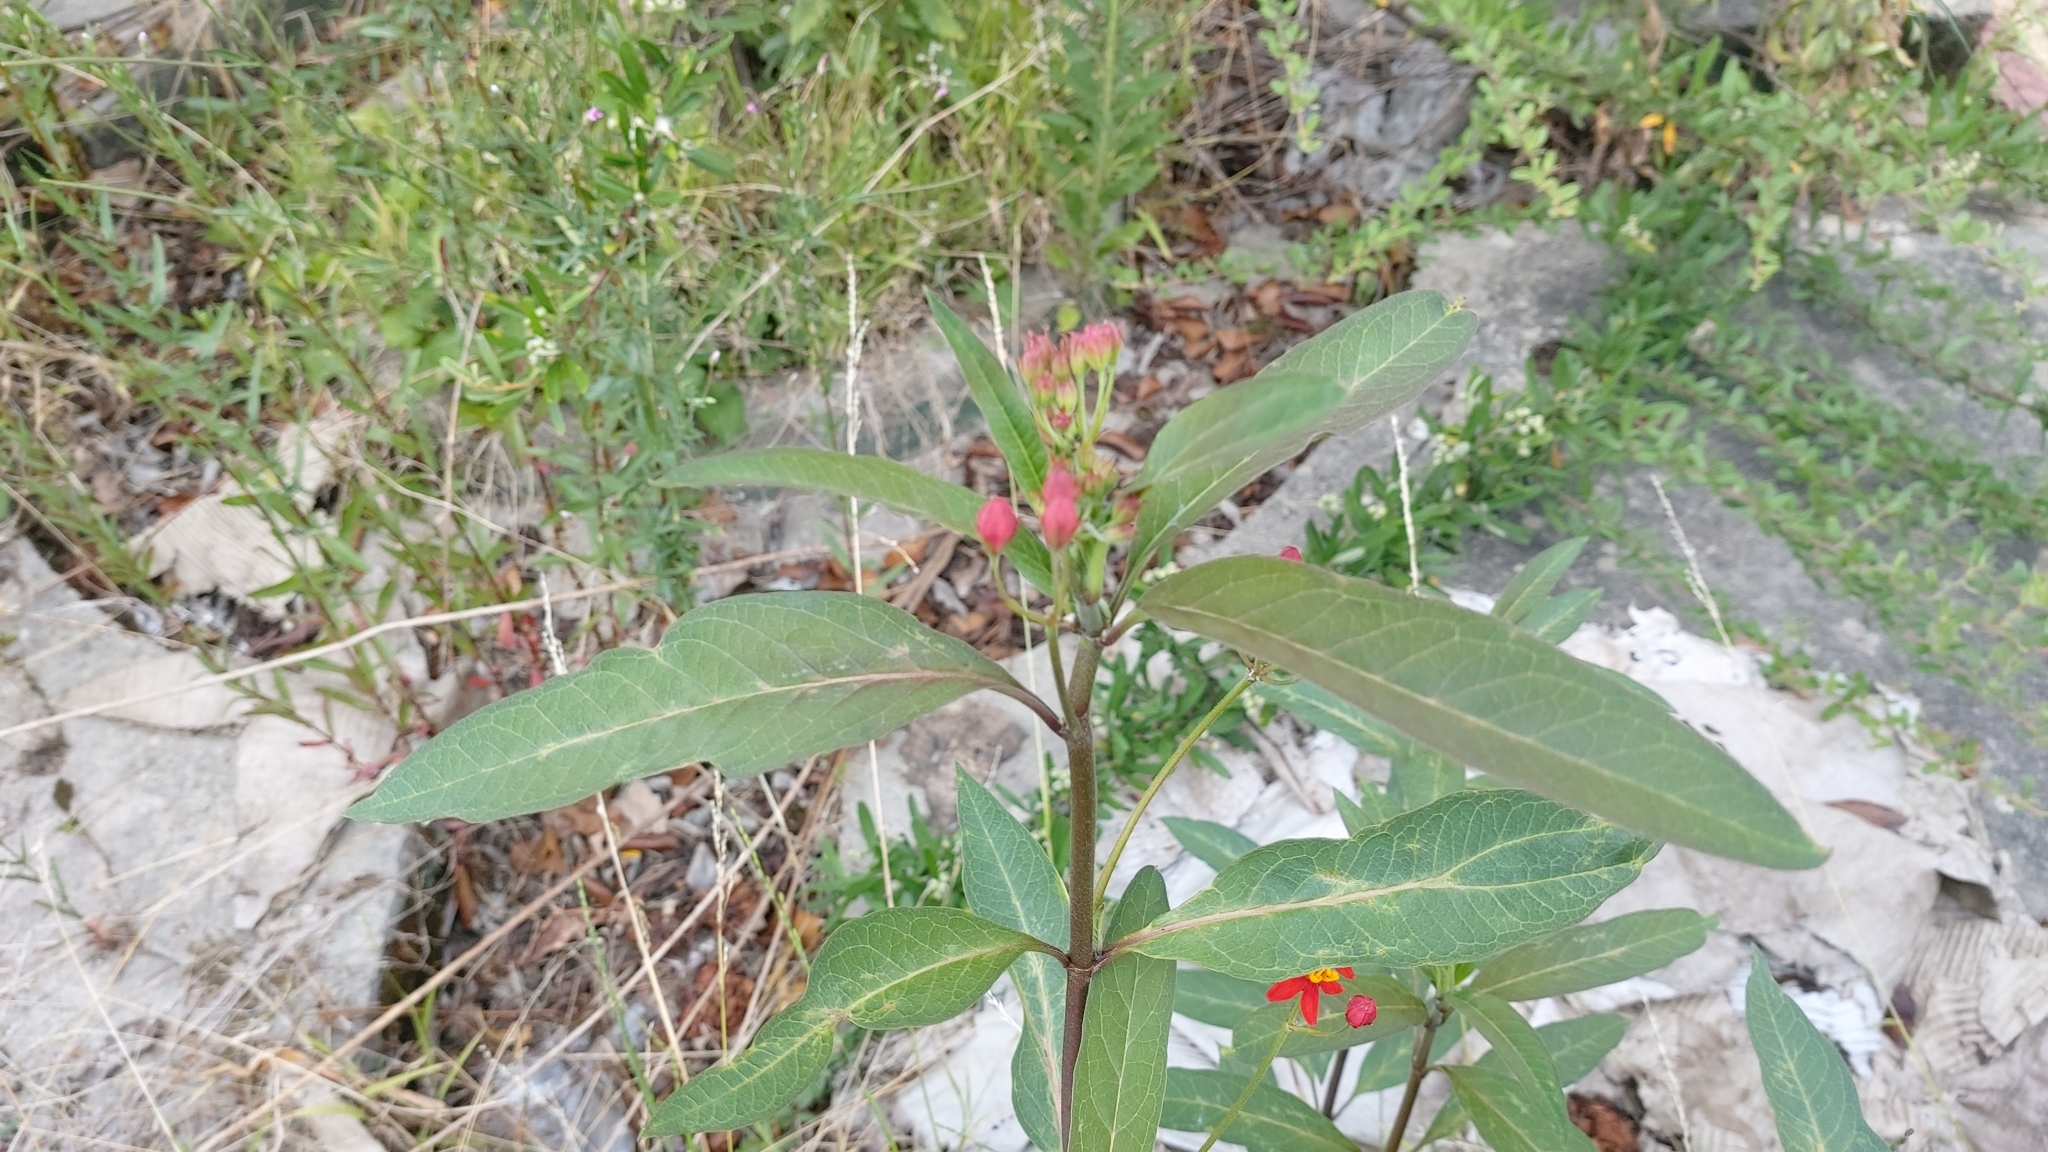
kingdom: Plantae
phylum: Tracheophyta
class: Magnoliopsida
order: Gentianales
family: Apocynaceae
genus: Asclepias
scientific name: Asclepias curassavica
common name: Bloodflower
